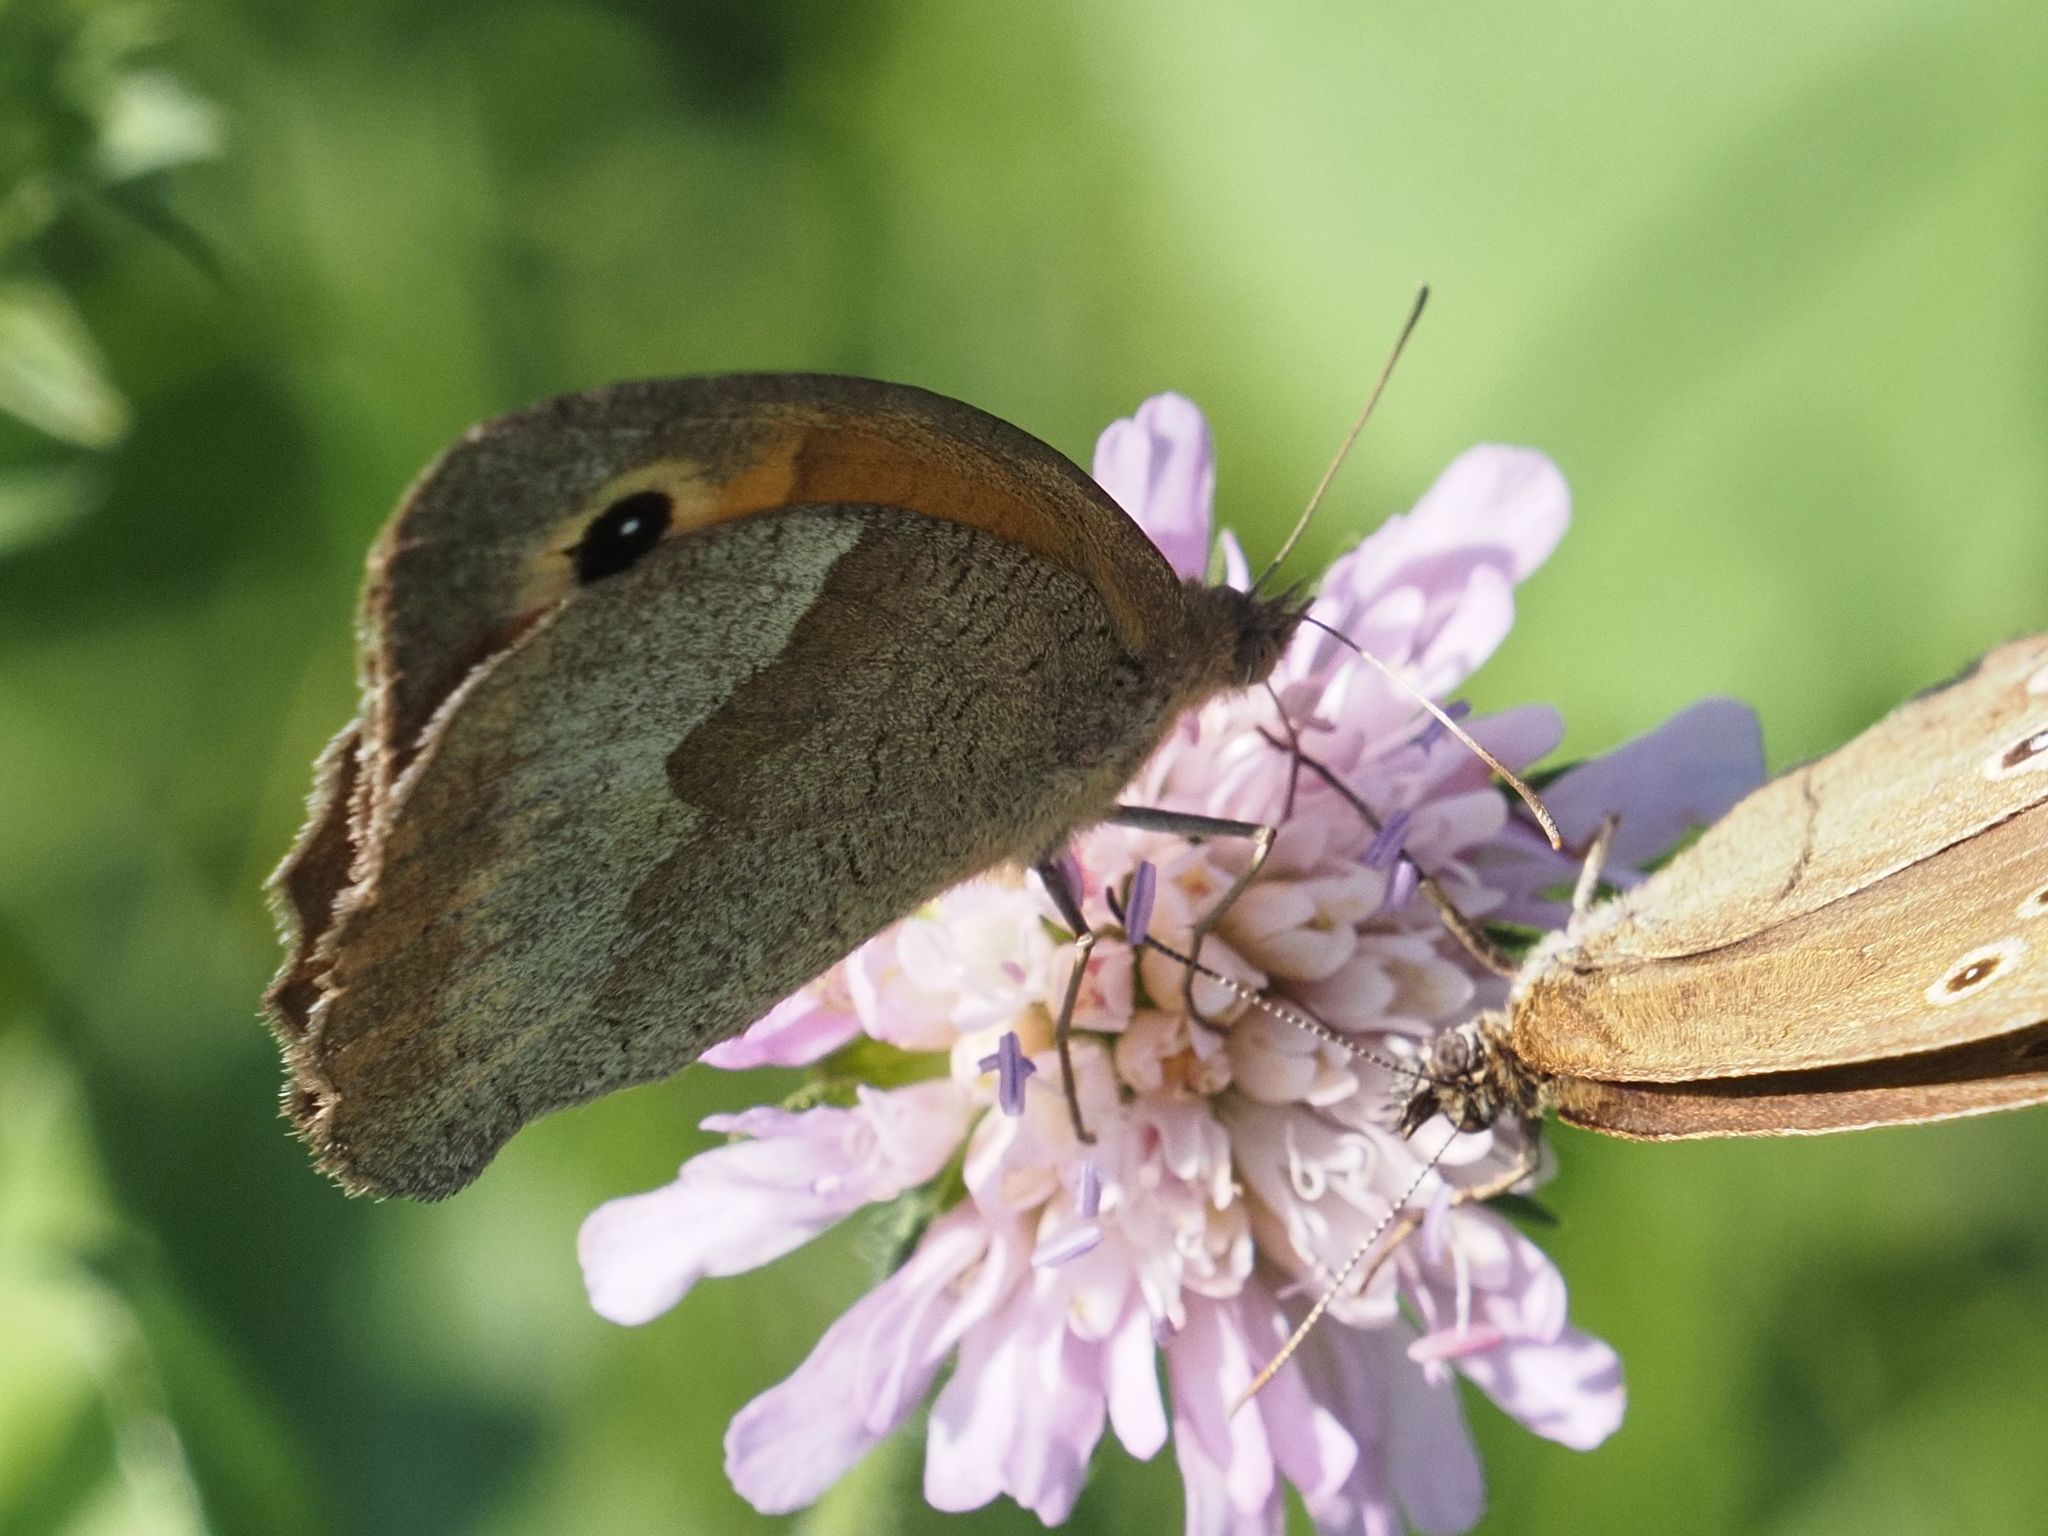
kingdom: Animalia
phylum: Arthropoda
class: Insecta
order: Lepidoptera
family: Nymphalidae
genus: Maniola
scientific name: Maniola jurtina
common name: Meadow brown
